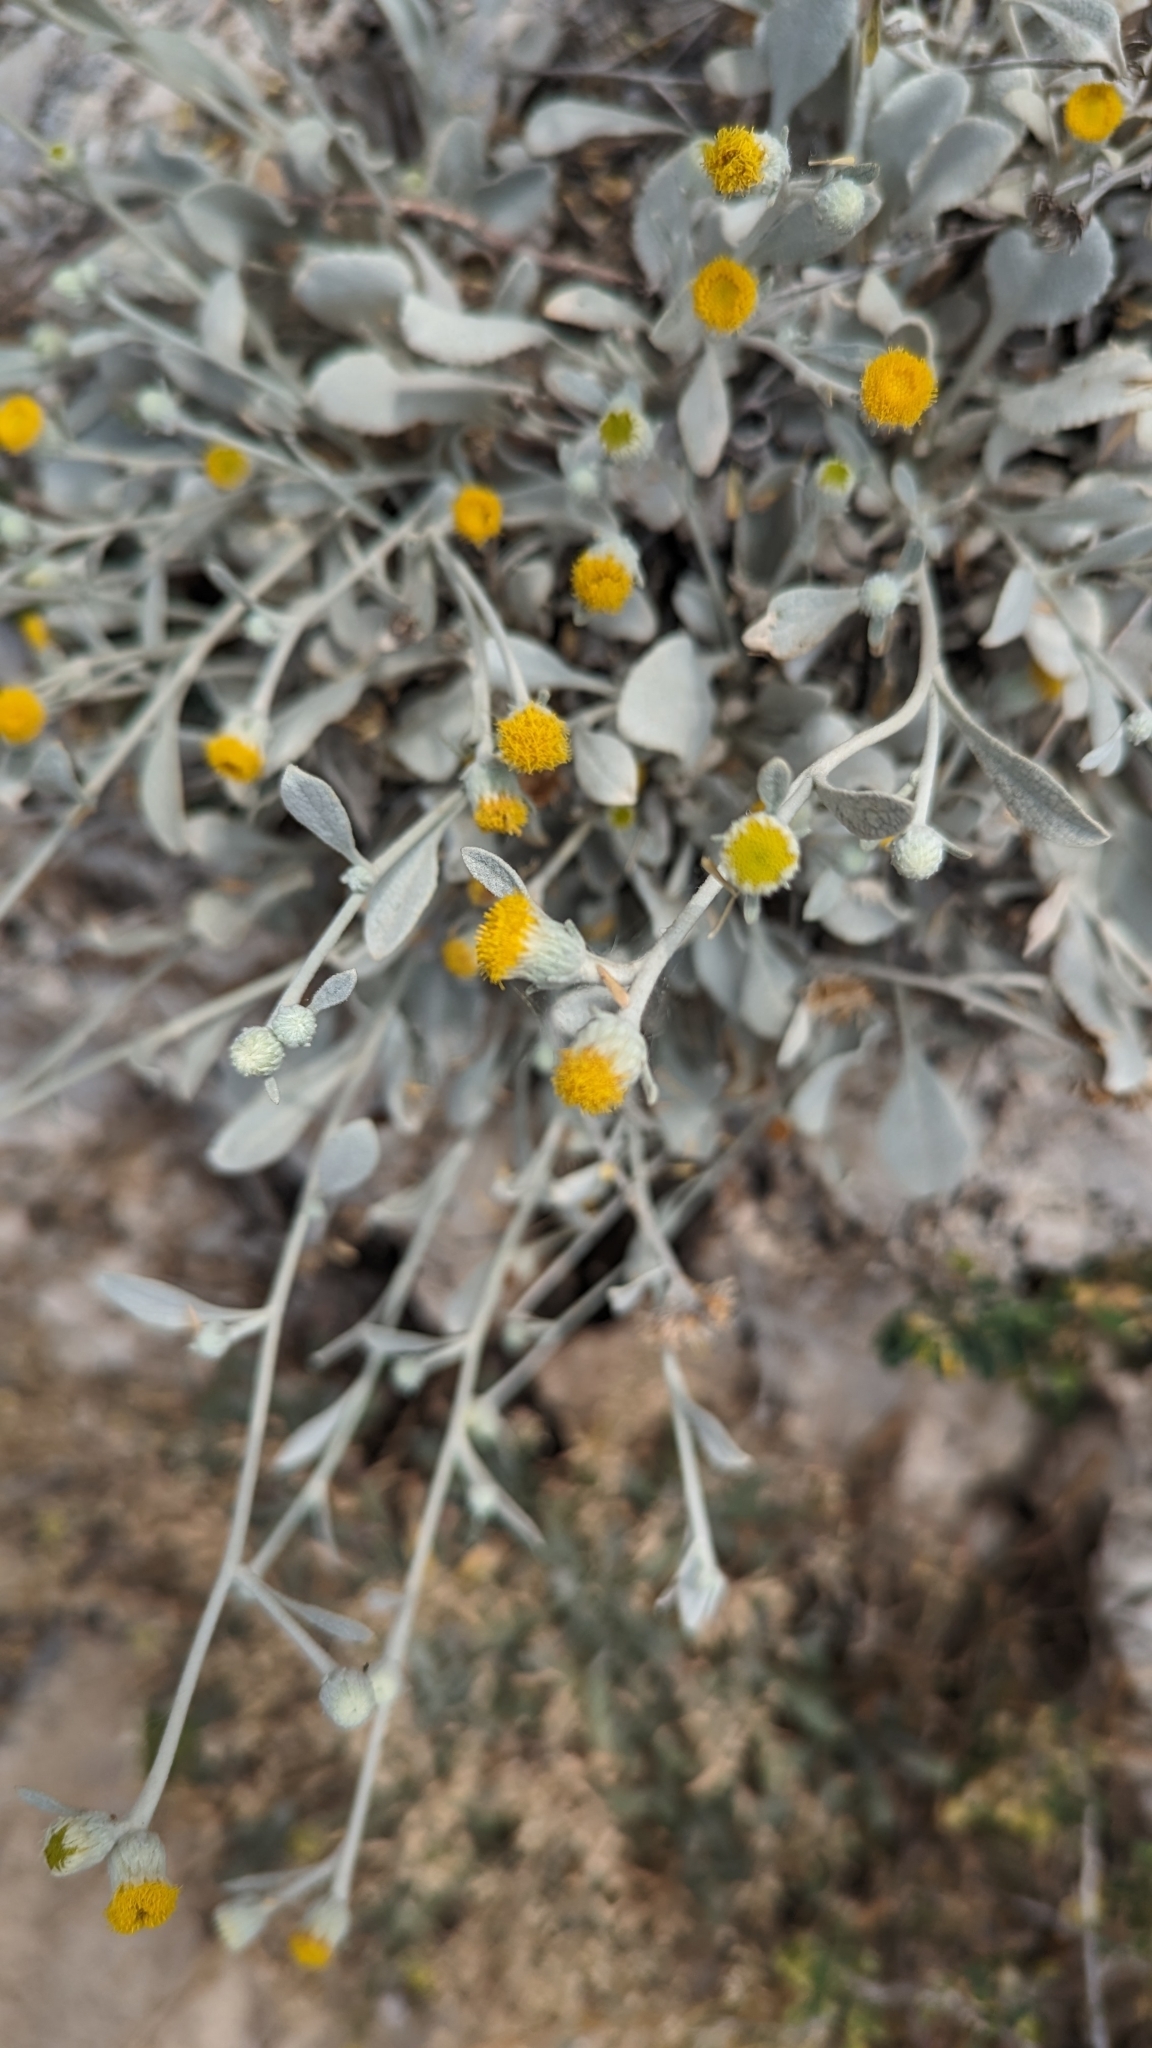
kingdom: Plantae
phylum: Tracheophyta
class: Magnoliopsida
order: Asterales
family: Asteraceae
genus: Pentanema
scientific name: Pentanema verbascifolium
